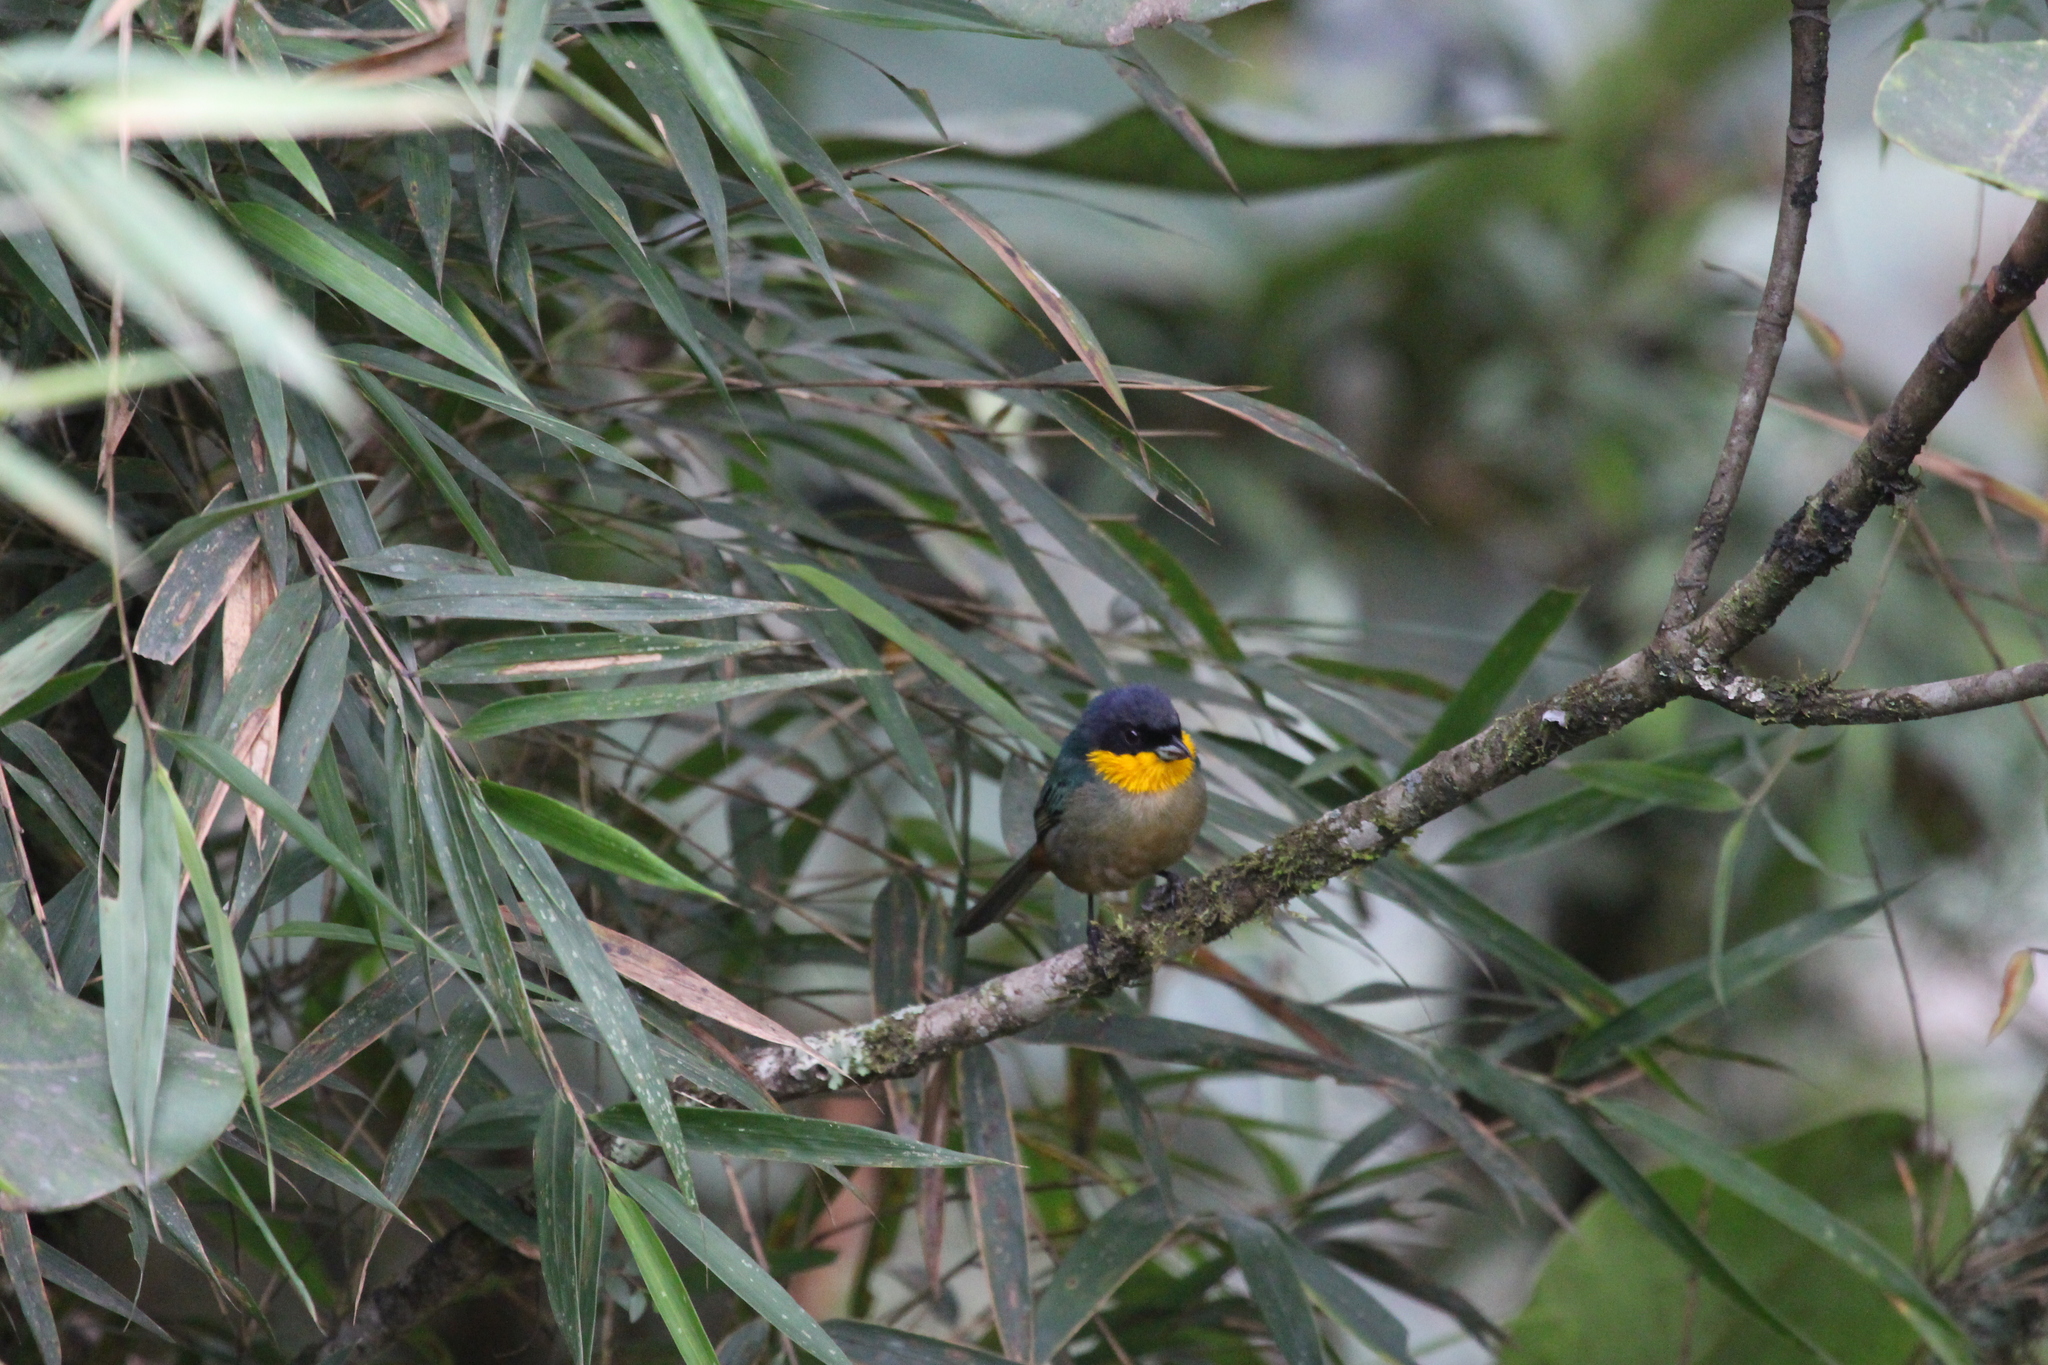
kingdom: Animalia
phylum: Chordata
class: Aves
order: Passeriformes
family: Thraupidae
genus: Iridosornis
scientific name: Iridosornis analis
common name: Yellow-throated tanager
